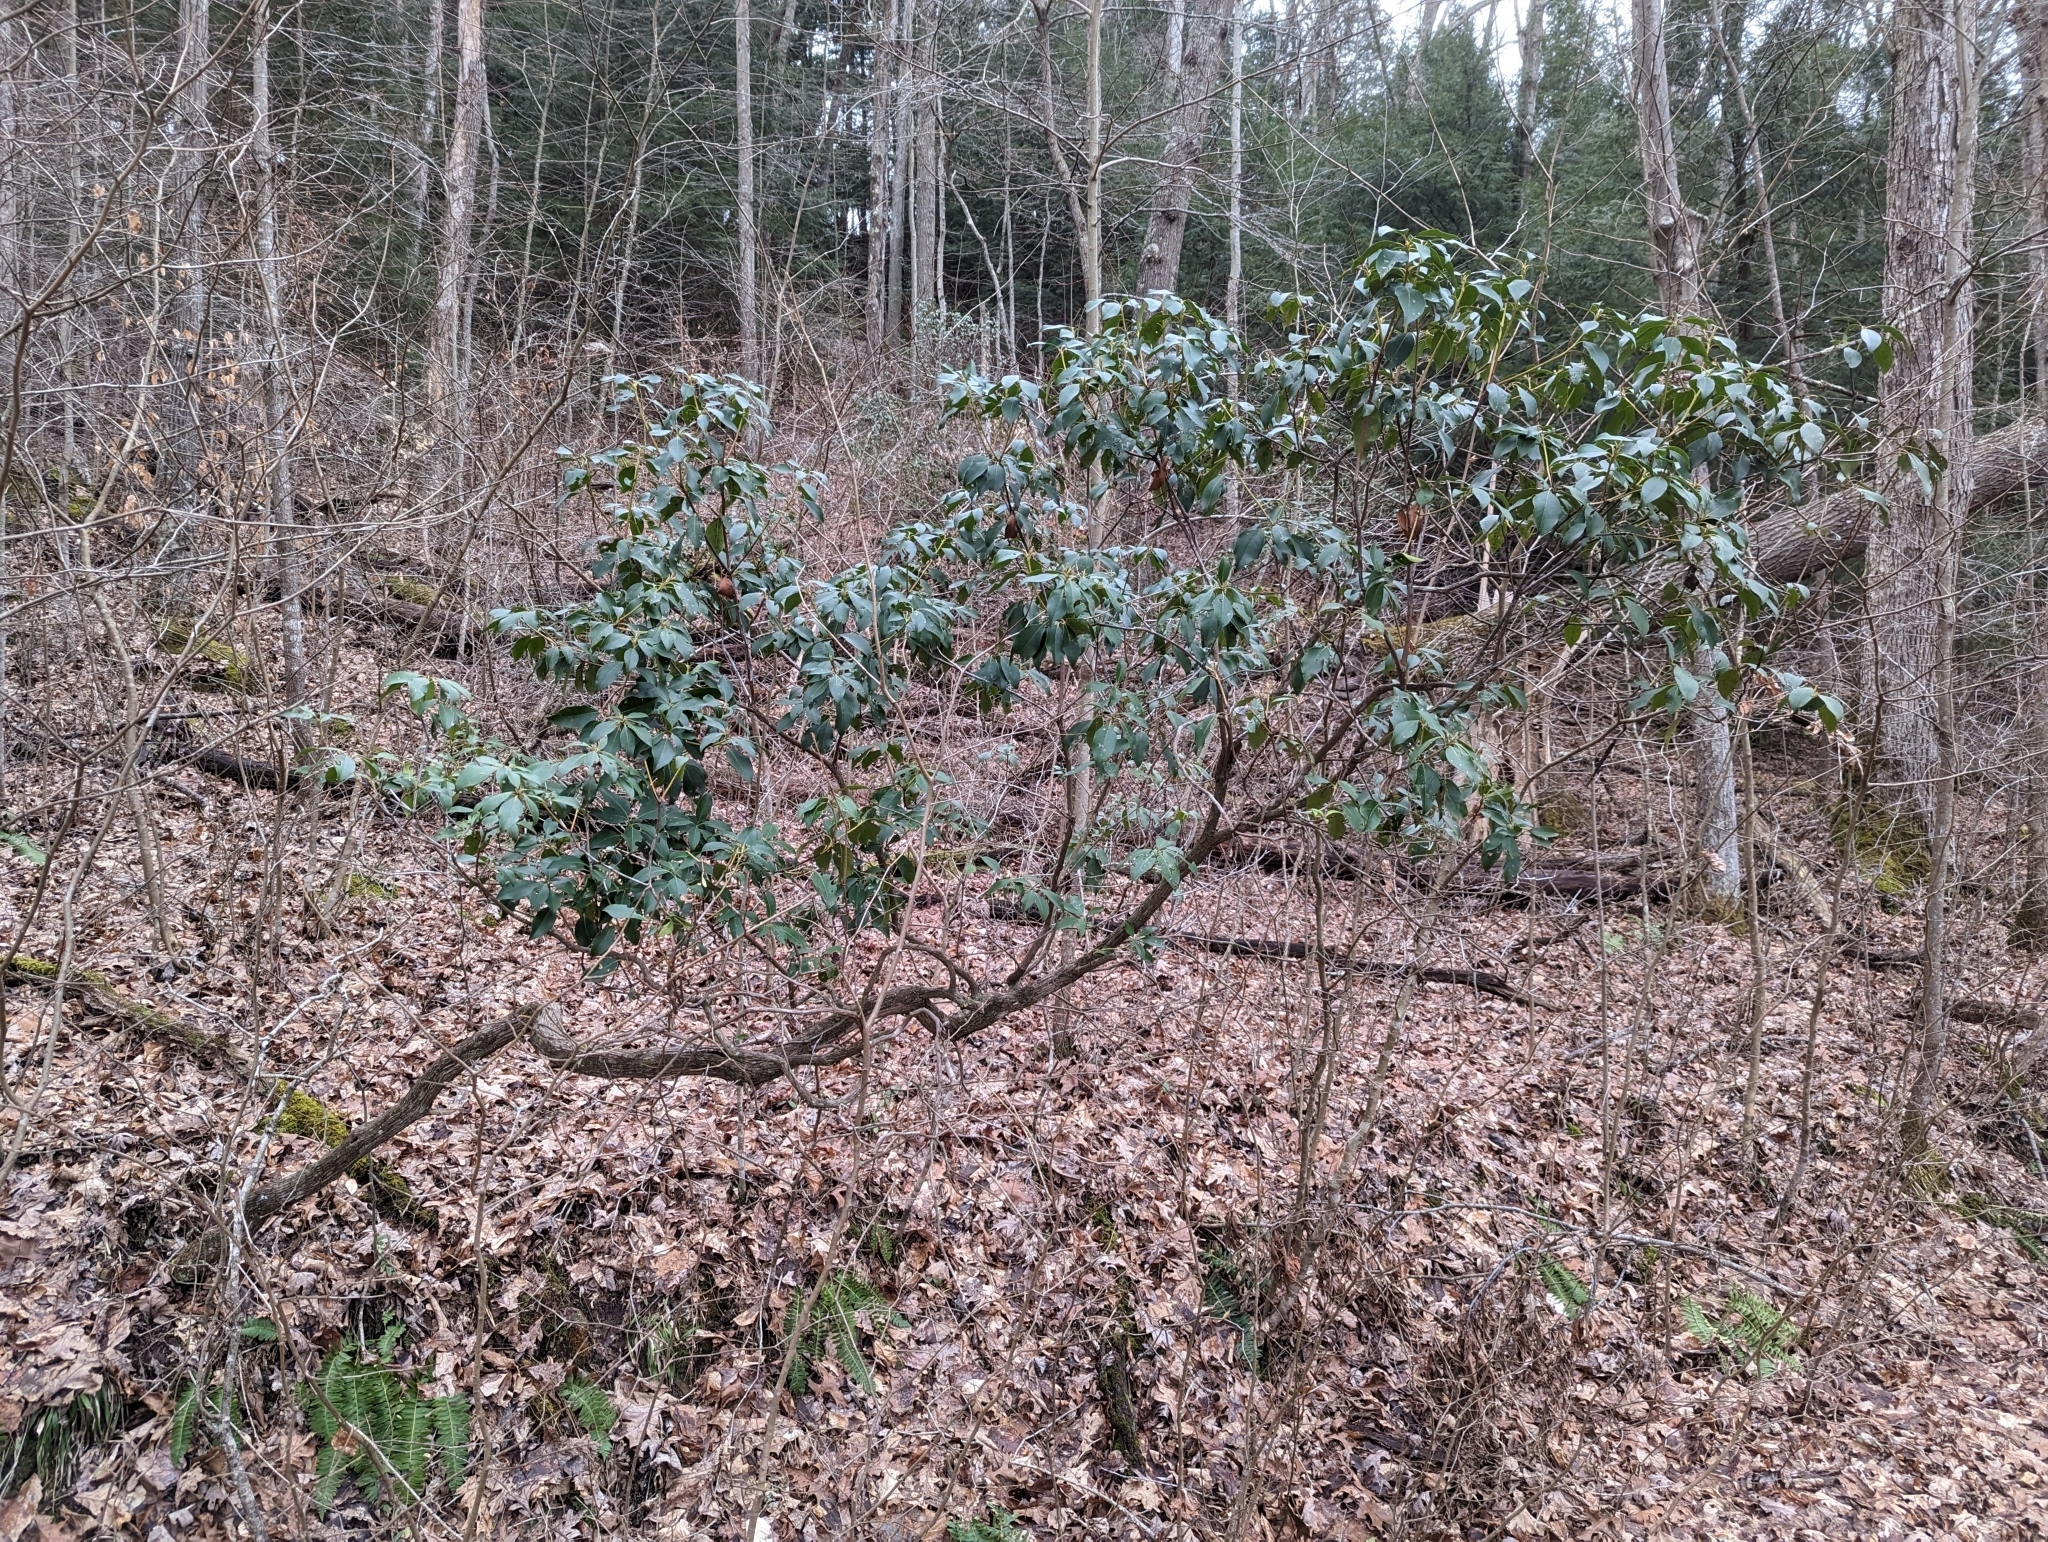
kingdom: Plantae
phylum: Tracheophyta
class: Magnoliopsida
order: Ericales
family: Ericaceae
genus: Kalmia
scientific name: Kalmia latifolia
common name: Mountain-laurel
